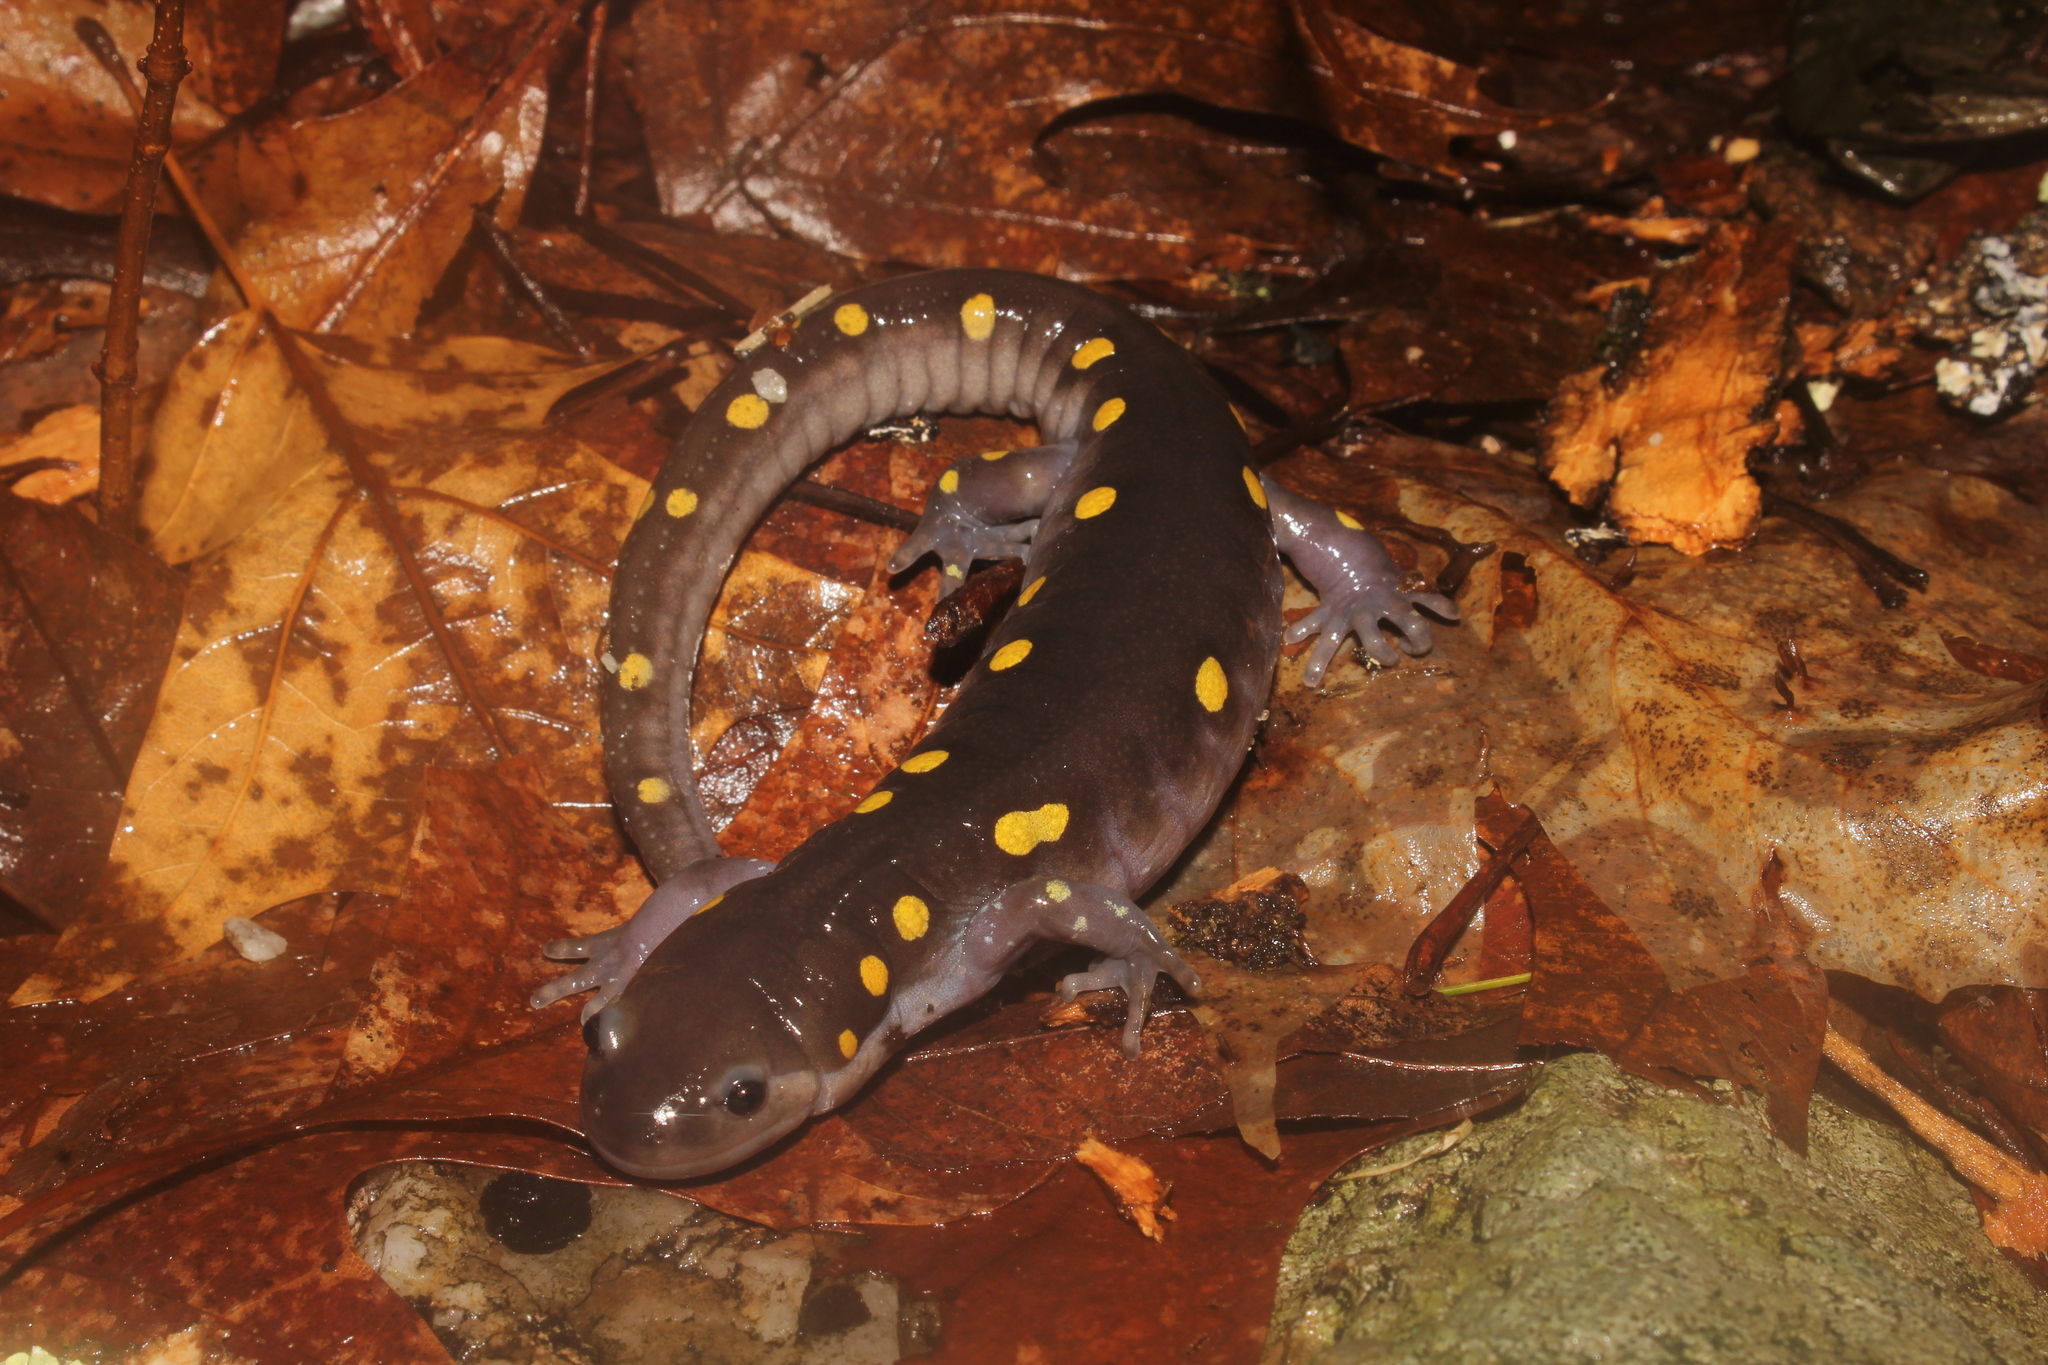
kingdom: Animalia
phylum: Chordata
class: Amphibia
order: Caudata
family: Ambystomatidae
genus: Ambystoma
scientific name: Ambystoma maculatum
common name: Spotted salamander
